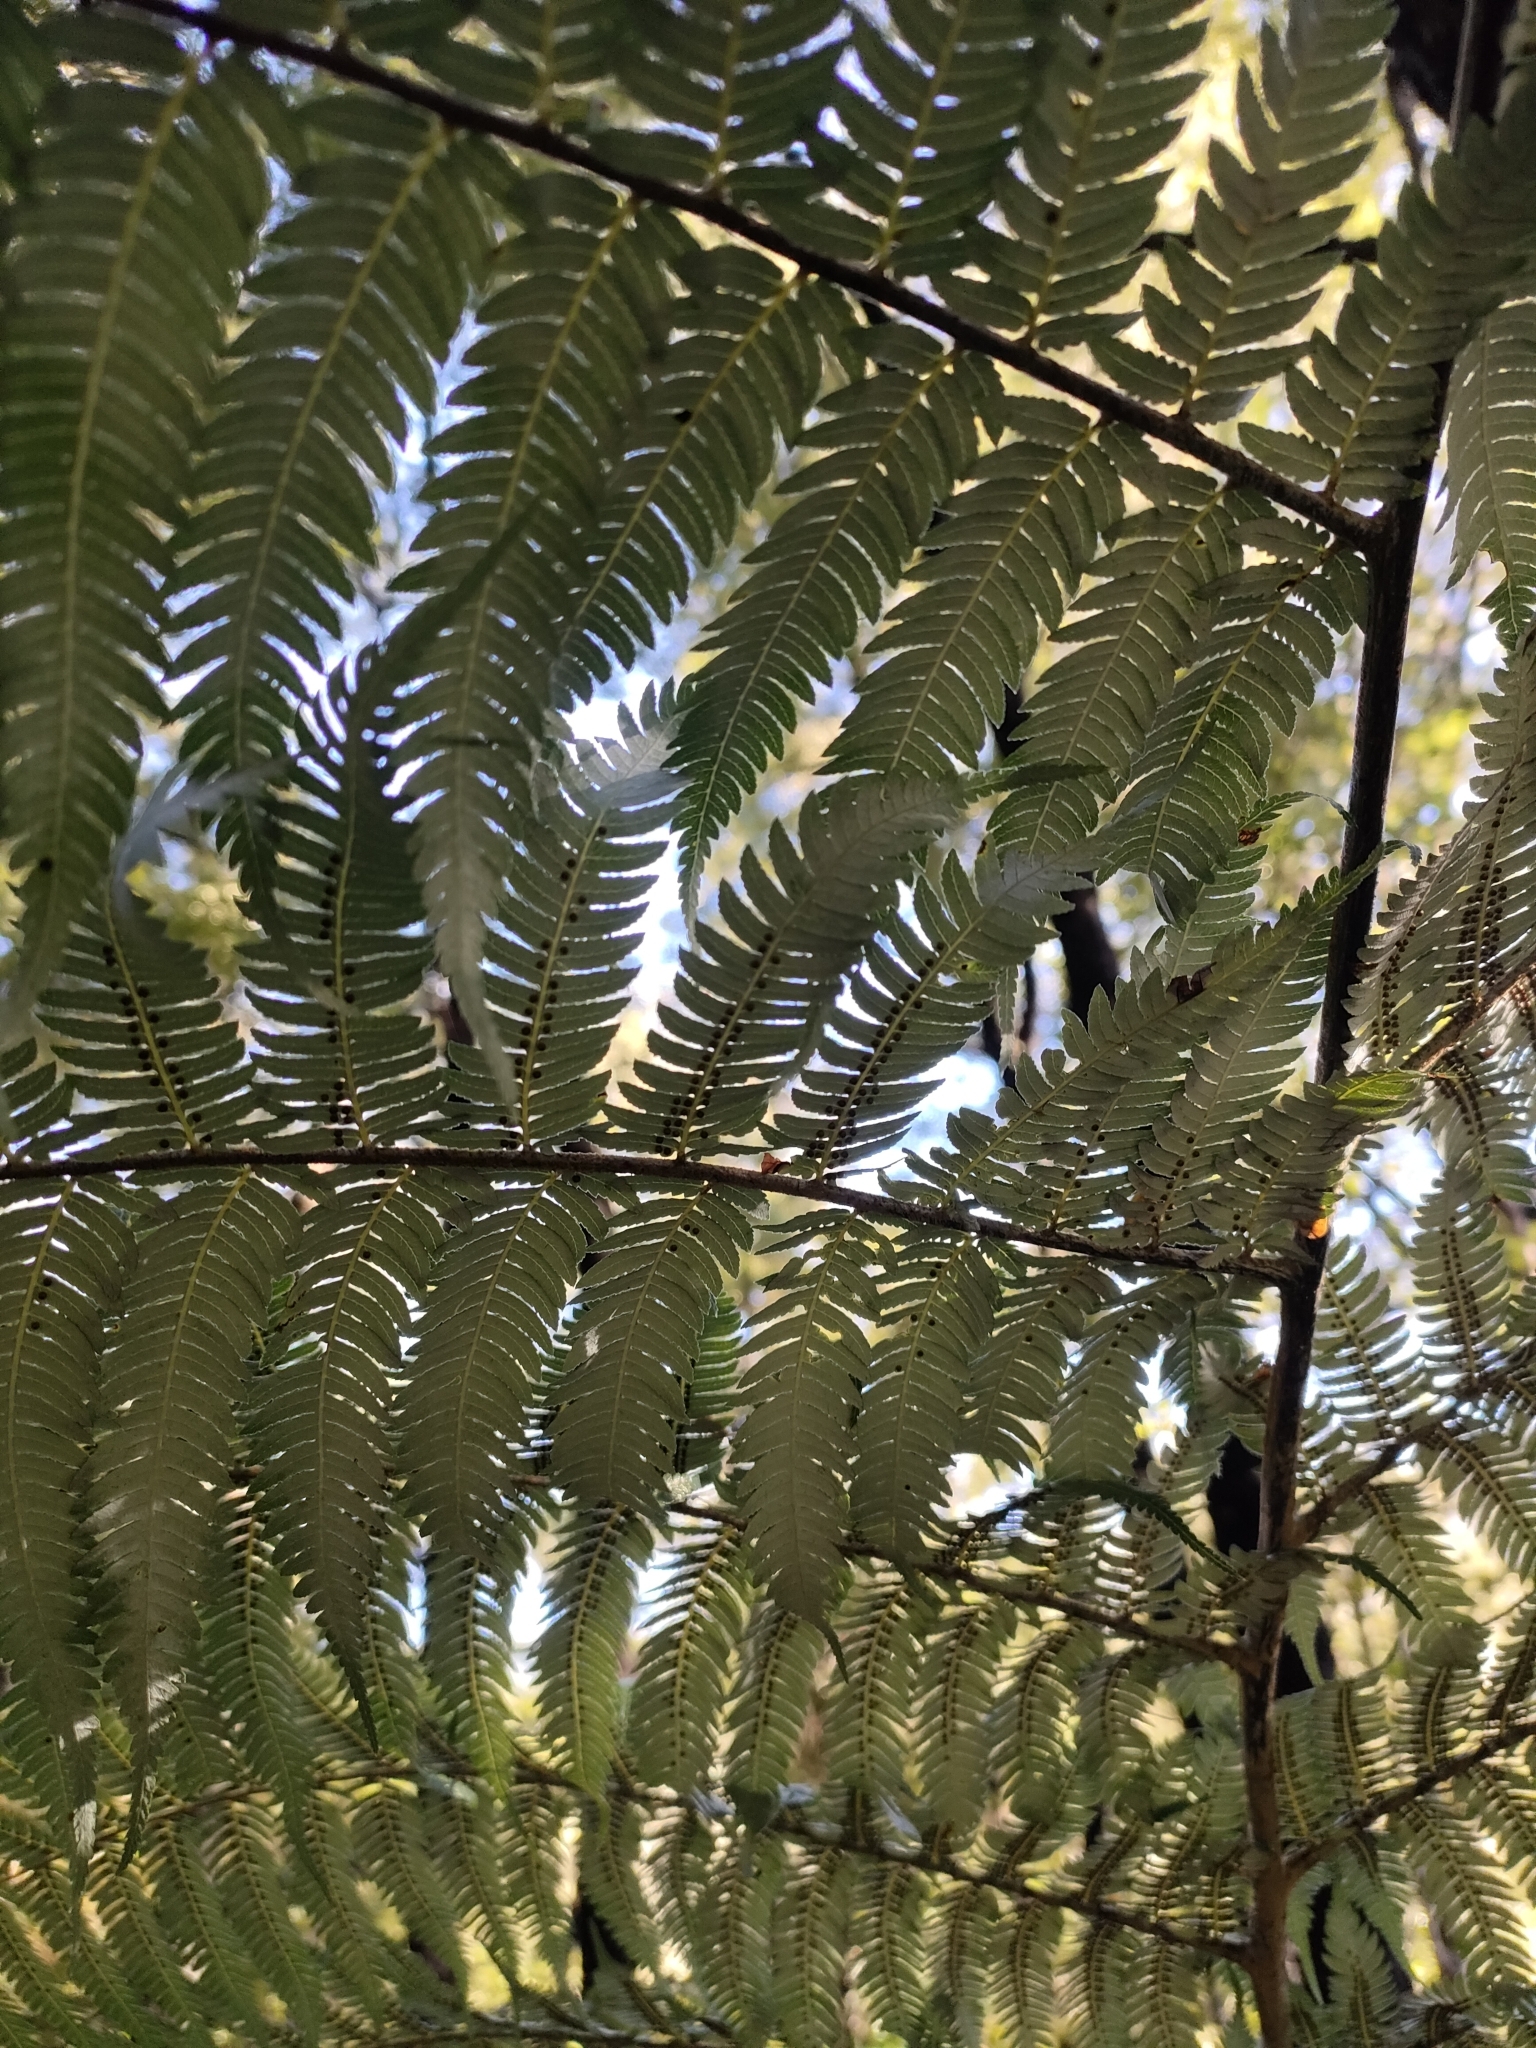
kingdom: Plantae
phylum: Tracheophyta
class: Polypodiopsida
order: Cyatheales
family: Cyatheaceae
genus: Alsophila
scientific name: Alsophila dealbata
